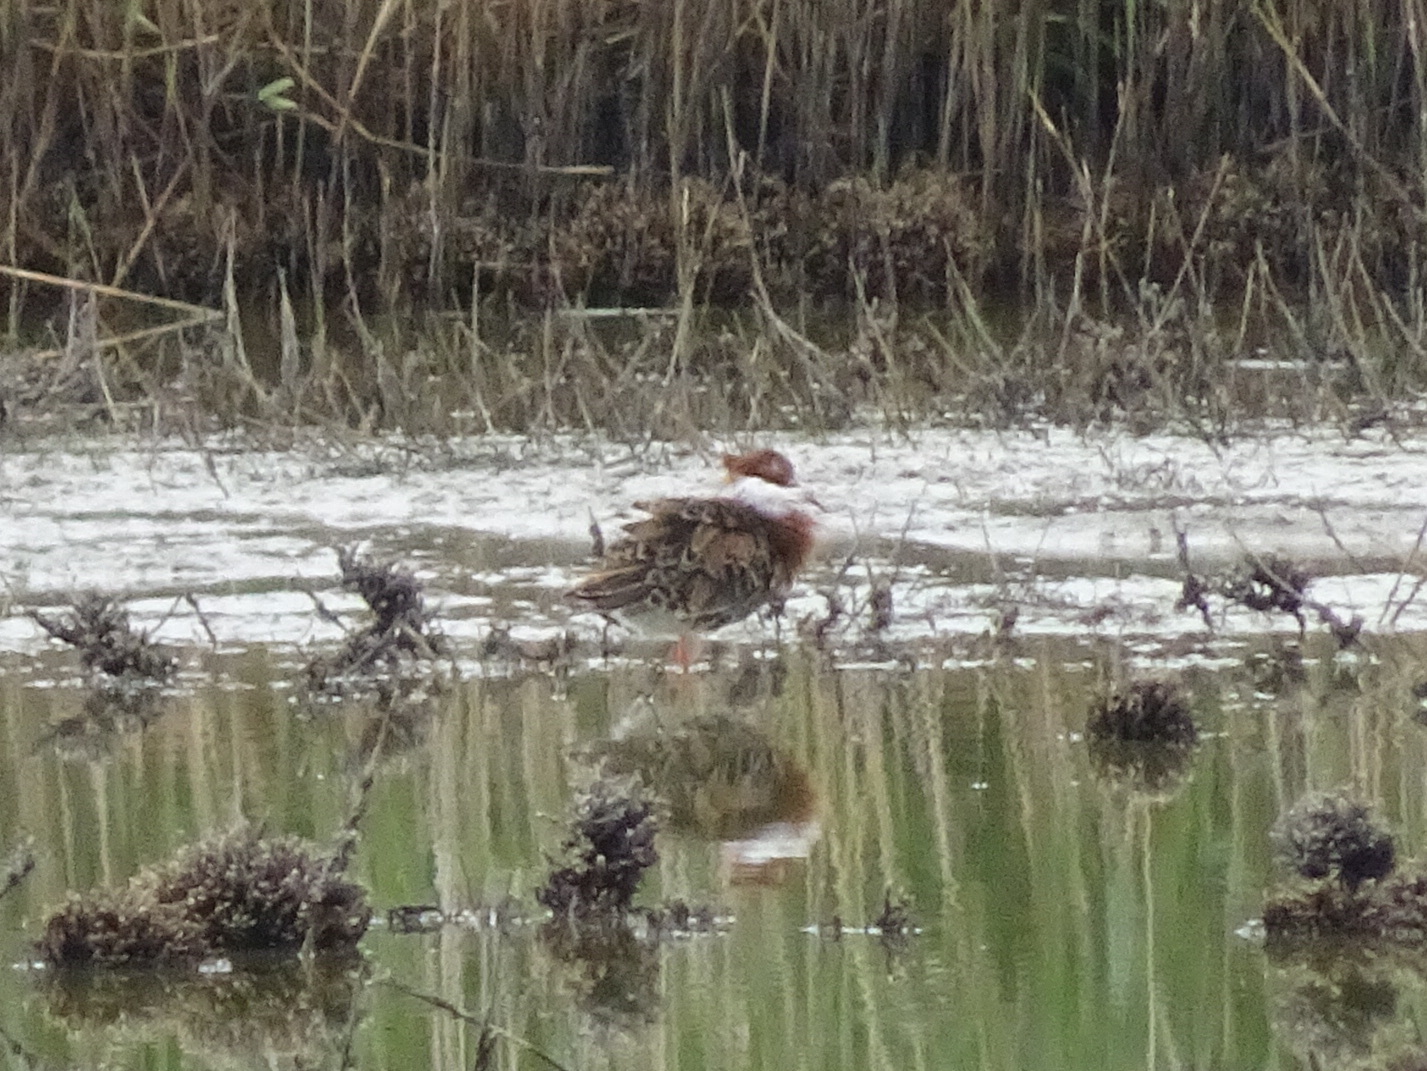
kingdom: Animalia
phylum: Chordata
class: Aves
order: Charadriiformes
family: Scolopacidae
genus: Calidris
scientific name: Calidris pugnax
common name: Ruff
